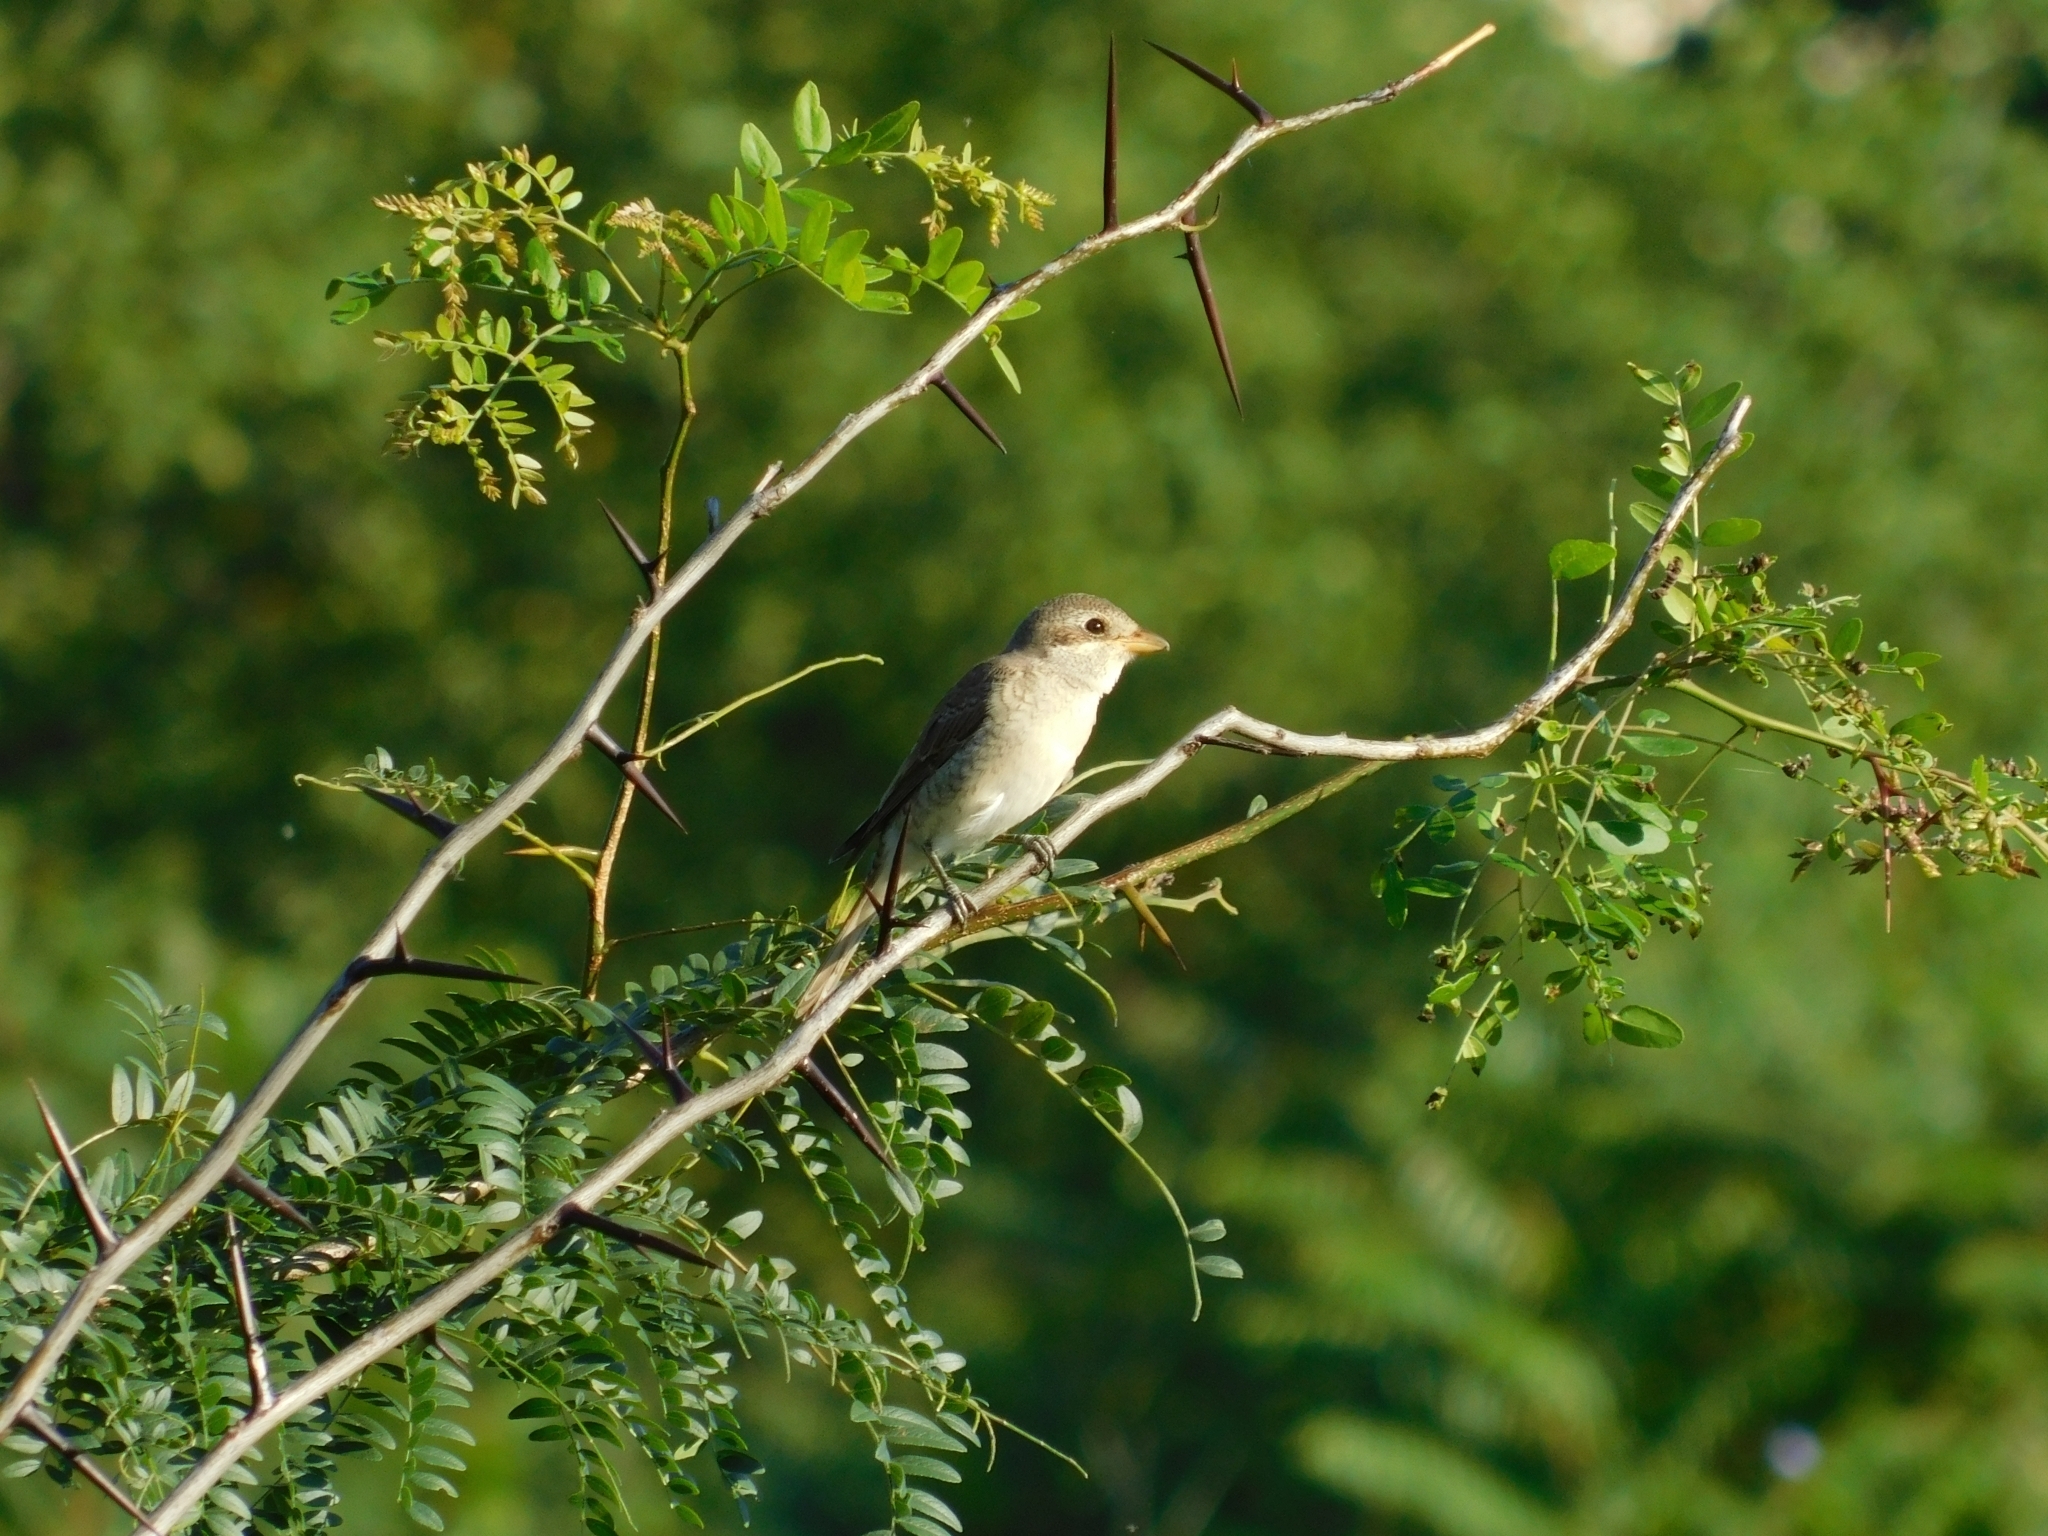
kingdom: Animalia
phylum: Chordata
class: Aves
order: Passeriformes
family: Laniidae
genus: Lanius
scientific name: Lanius collurio
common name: Red-backed shrike
